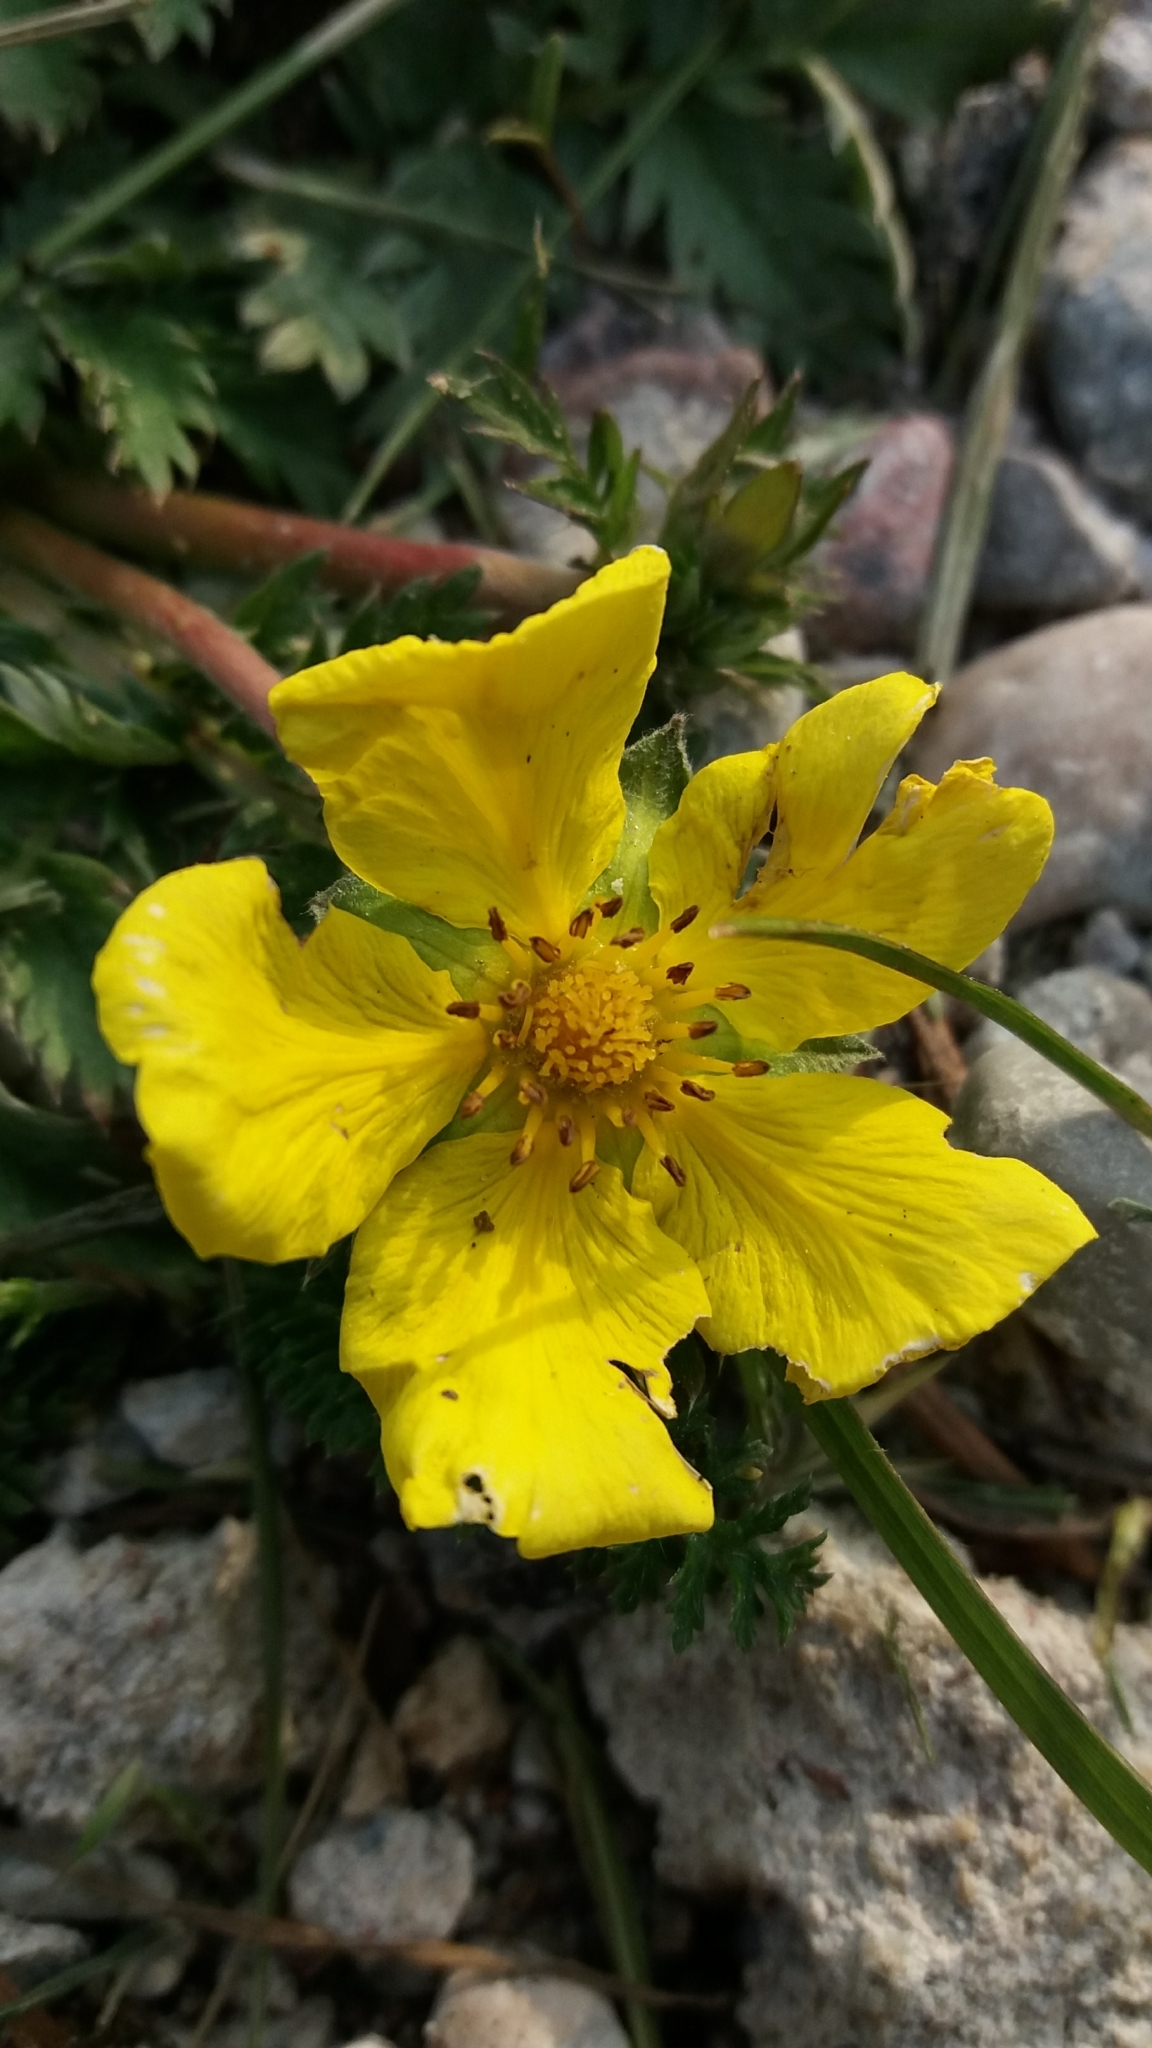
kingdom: Plantae
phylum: Tracheophyta
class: Magnoliopsida
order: Rosales
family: Rosaceae
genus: Argentina
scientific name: Argentina anserina
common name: Common silverweed
